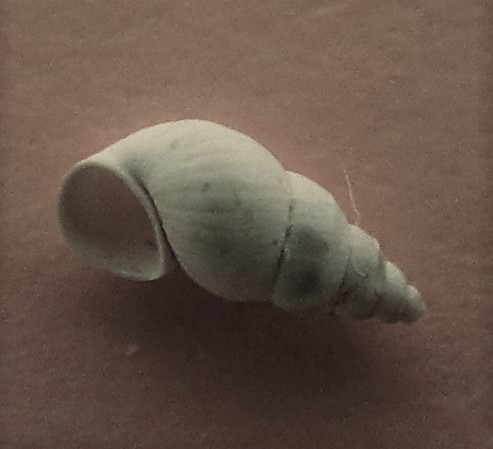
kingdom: Animalia
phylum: Mollusca
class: Gastropoda
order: Littorinimorpha
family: Tateidae
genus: Potamopyrgus
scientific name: Potamopyrgus antipodarum
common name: Jenkins' spire snail
